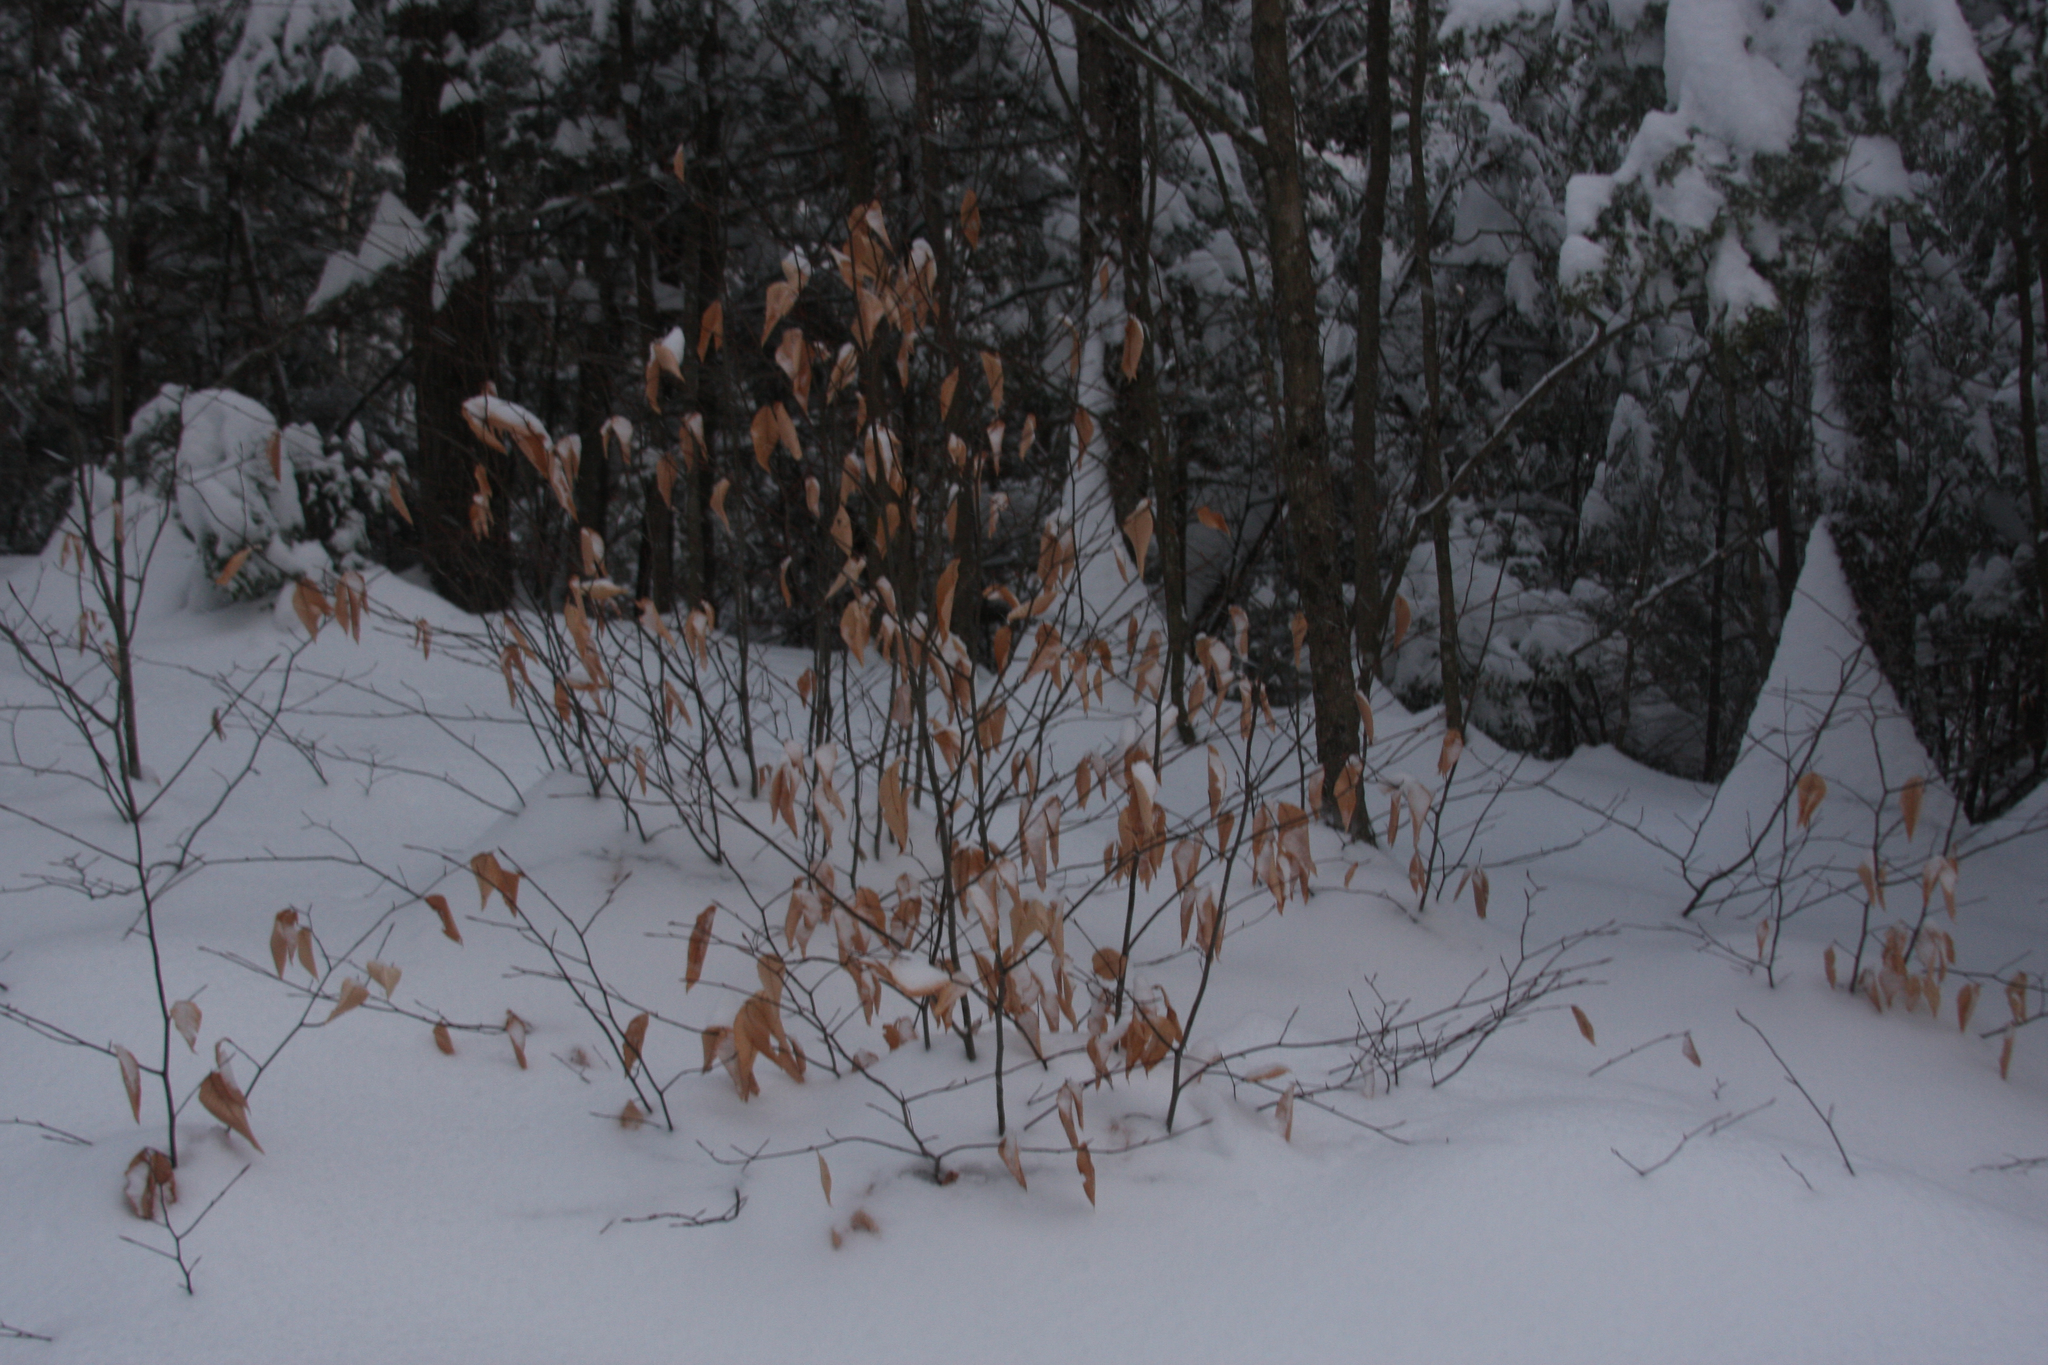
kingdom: Plantae
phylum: Tracheophyta
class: Magnoliopsida
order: Fagales
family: Fagaceae
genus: Fagus
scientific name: Fagus grandifolia
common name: American beech
